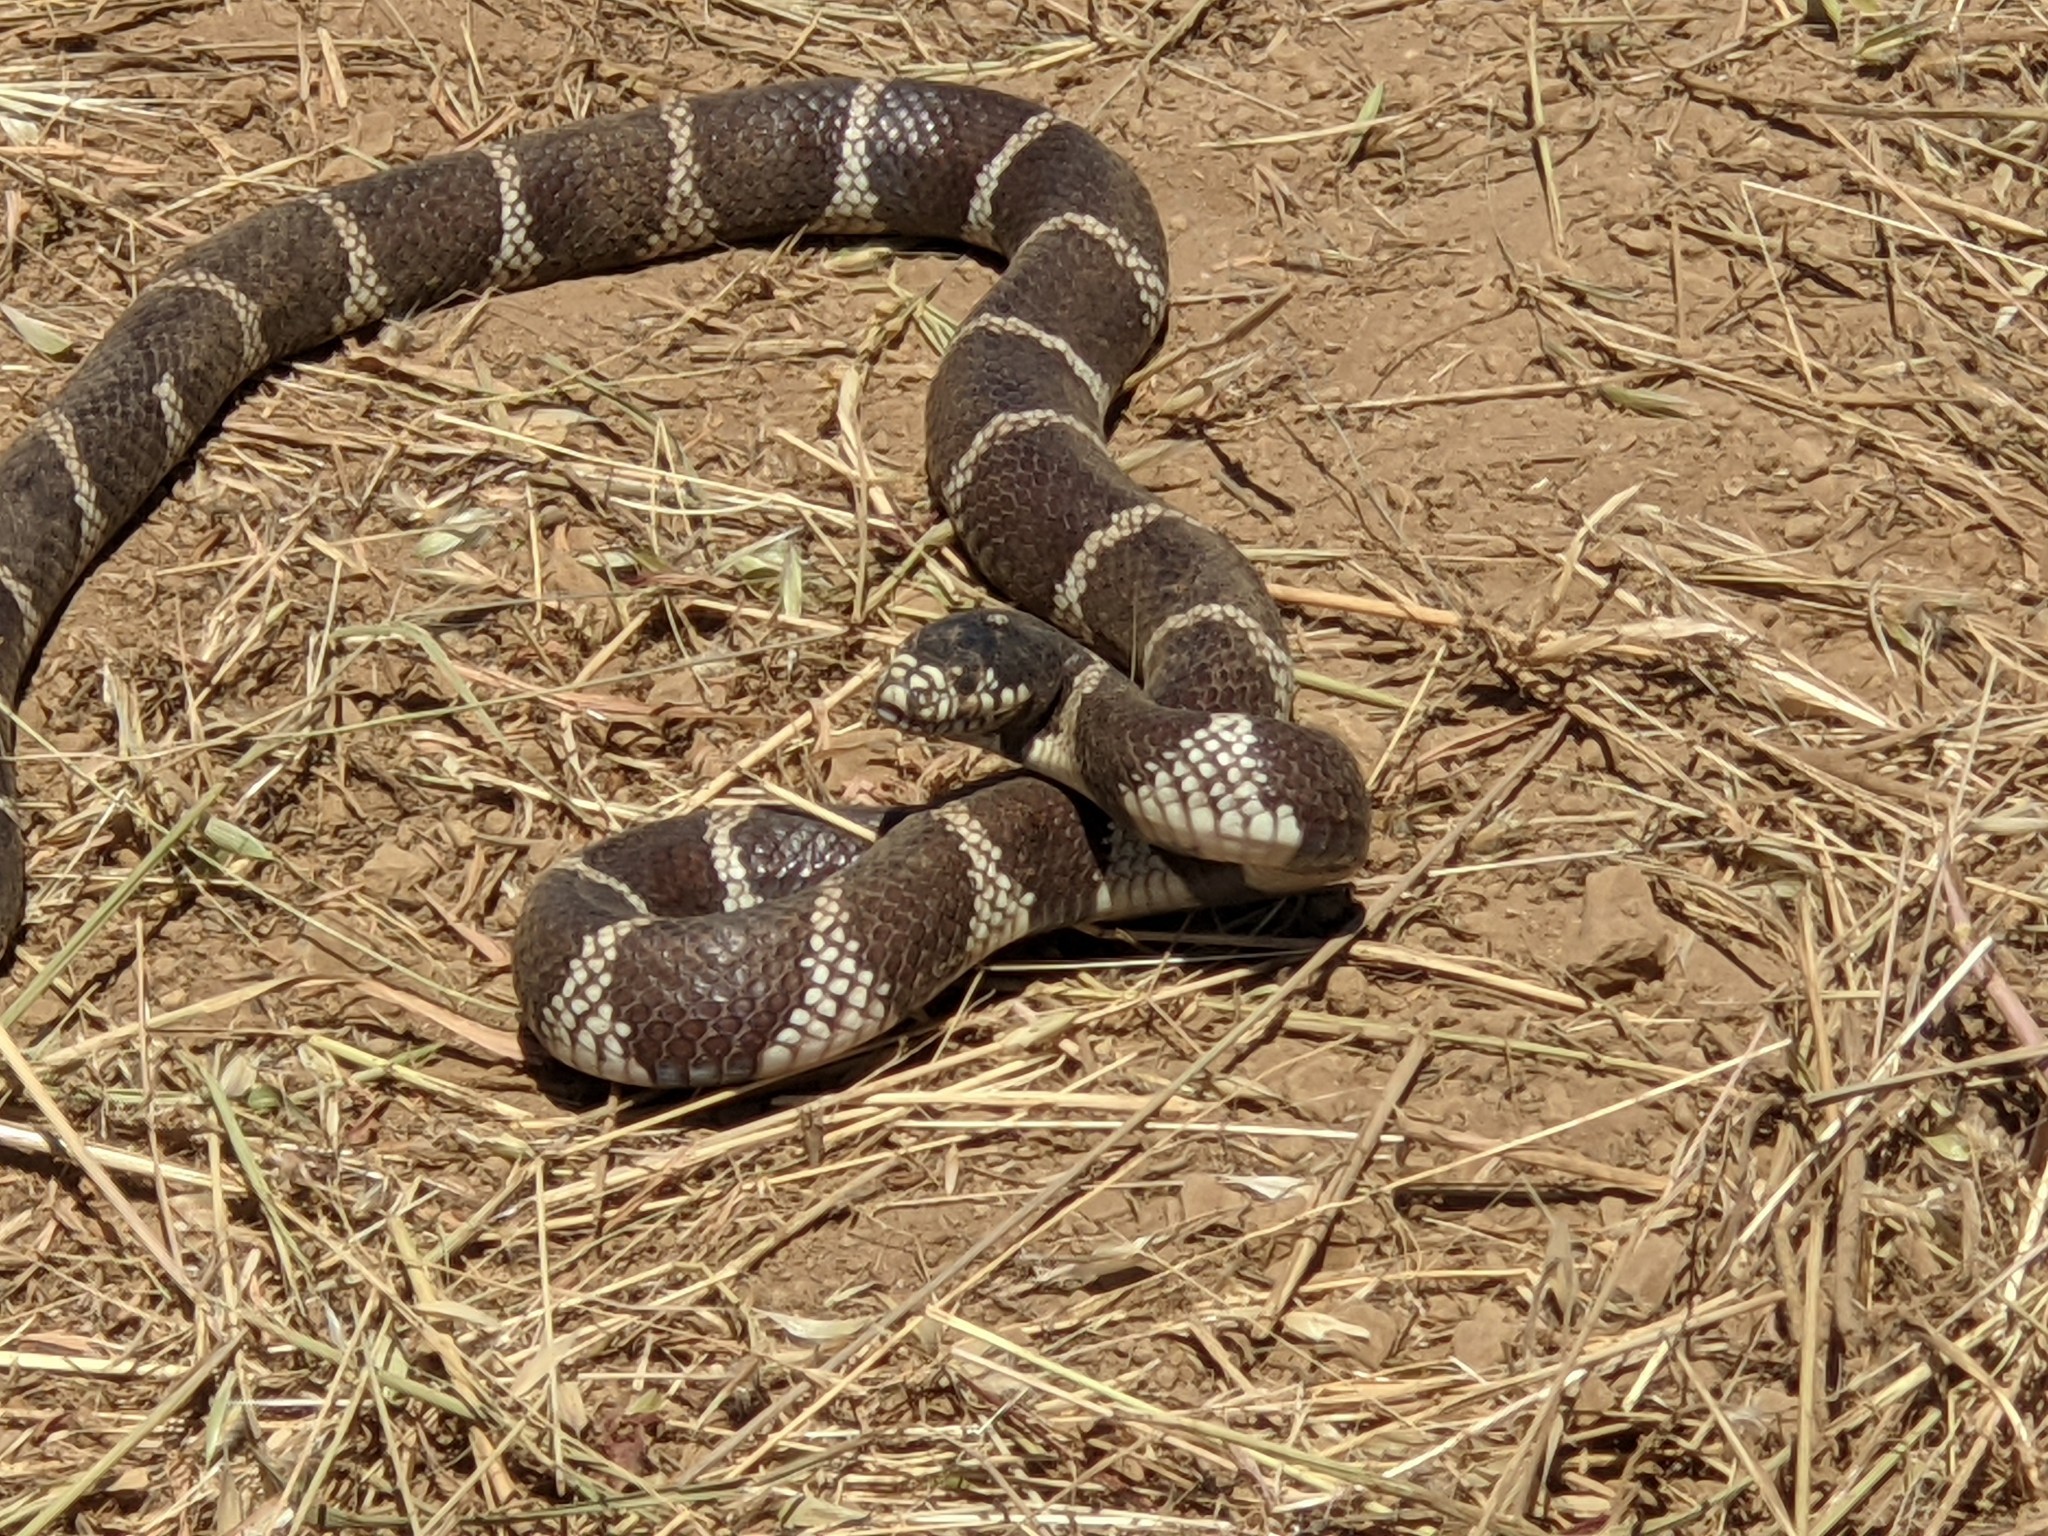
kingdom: Animalia
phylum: Chordata
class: Squamata
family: Colubridae
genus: Lampropeltis
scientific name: Lampropeltis californiae
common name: California kingsnake
